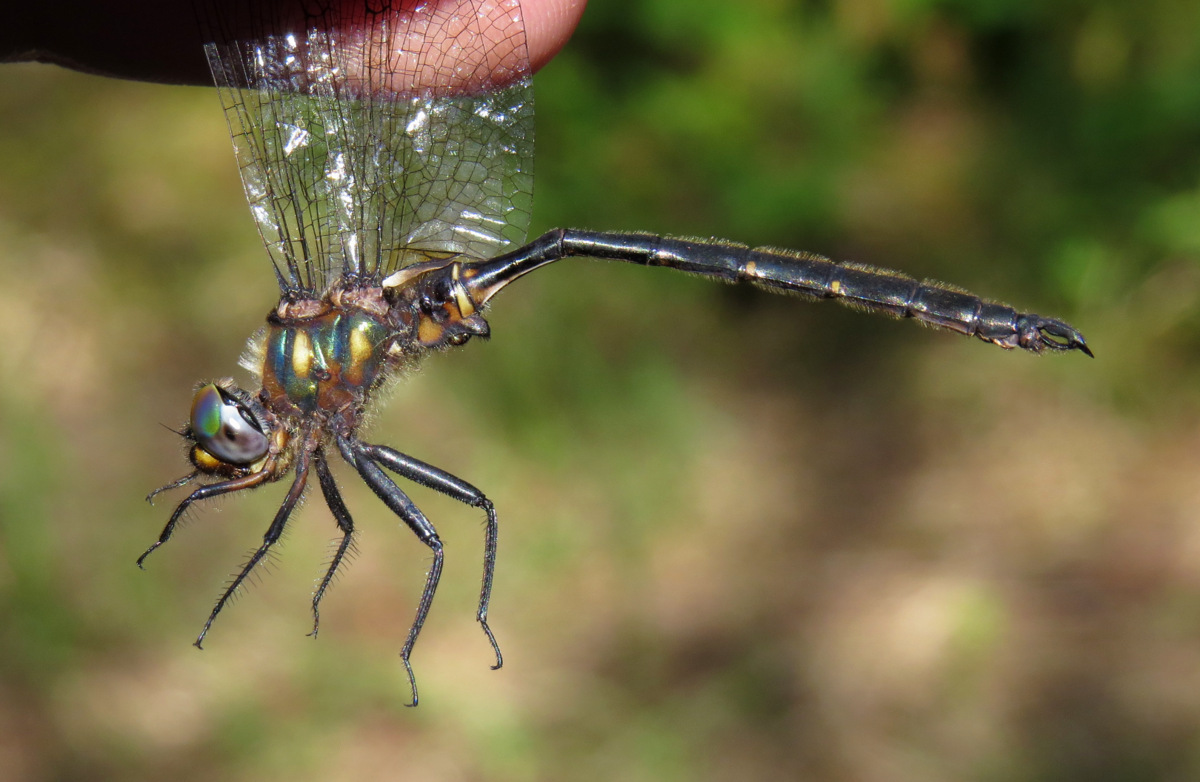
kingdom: Animalia
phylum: Arthropoda
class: Insecta
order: Odonata
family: Corduliidae
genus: Somatochlora
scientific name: Somatochlora forcipata
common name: Forcipate emerald
